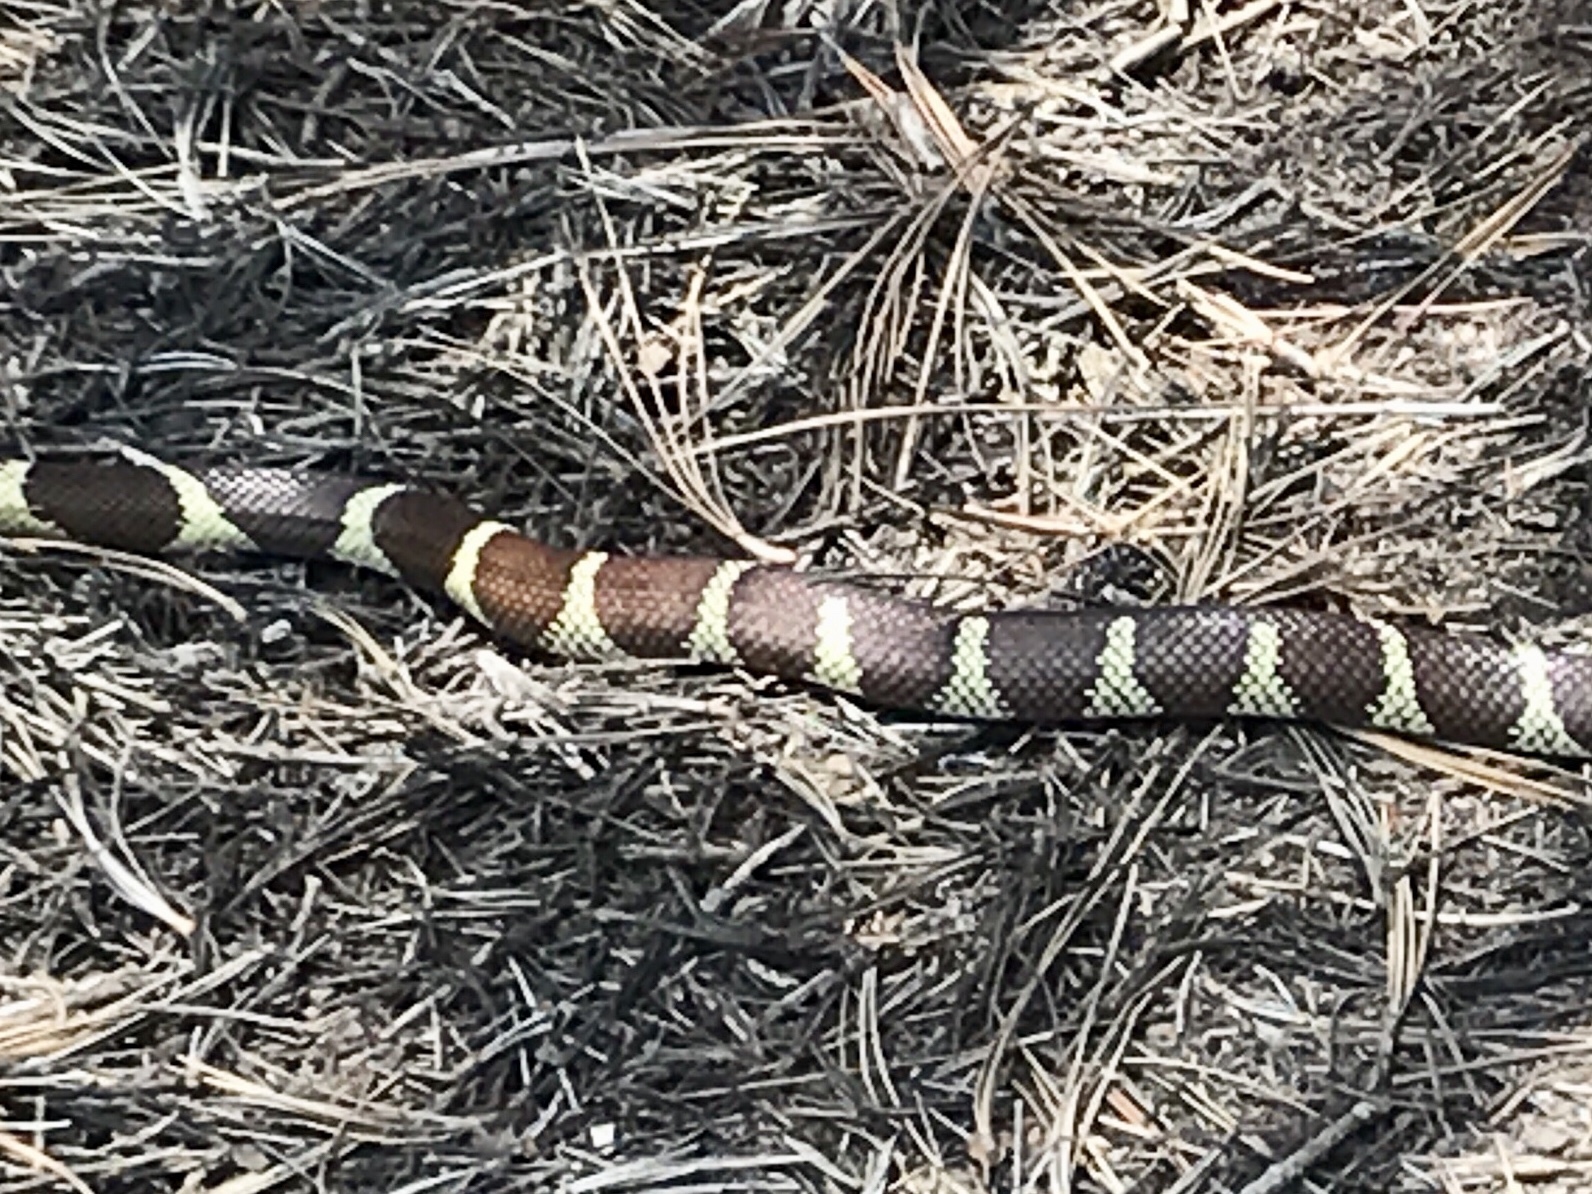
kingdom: Animalia
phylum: Chordata
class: Squamata
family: Colubridae
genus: Lampropeltis
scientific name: Lampropeltis californiae
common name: California kingsnake
